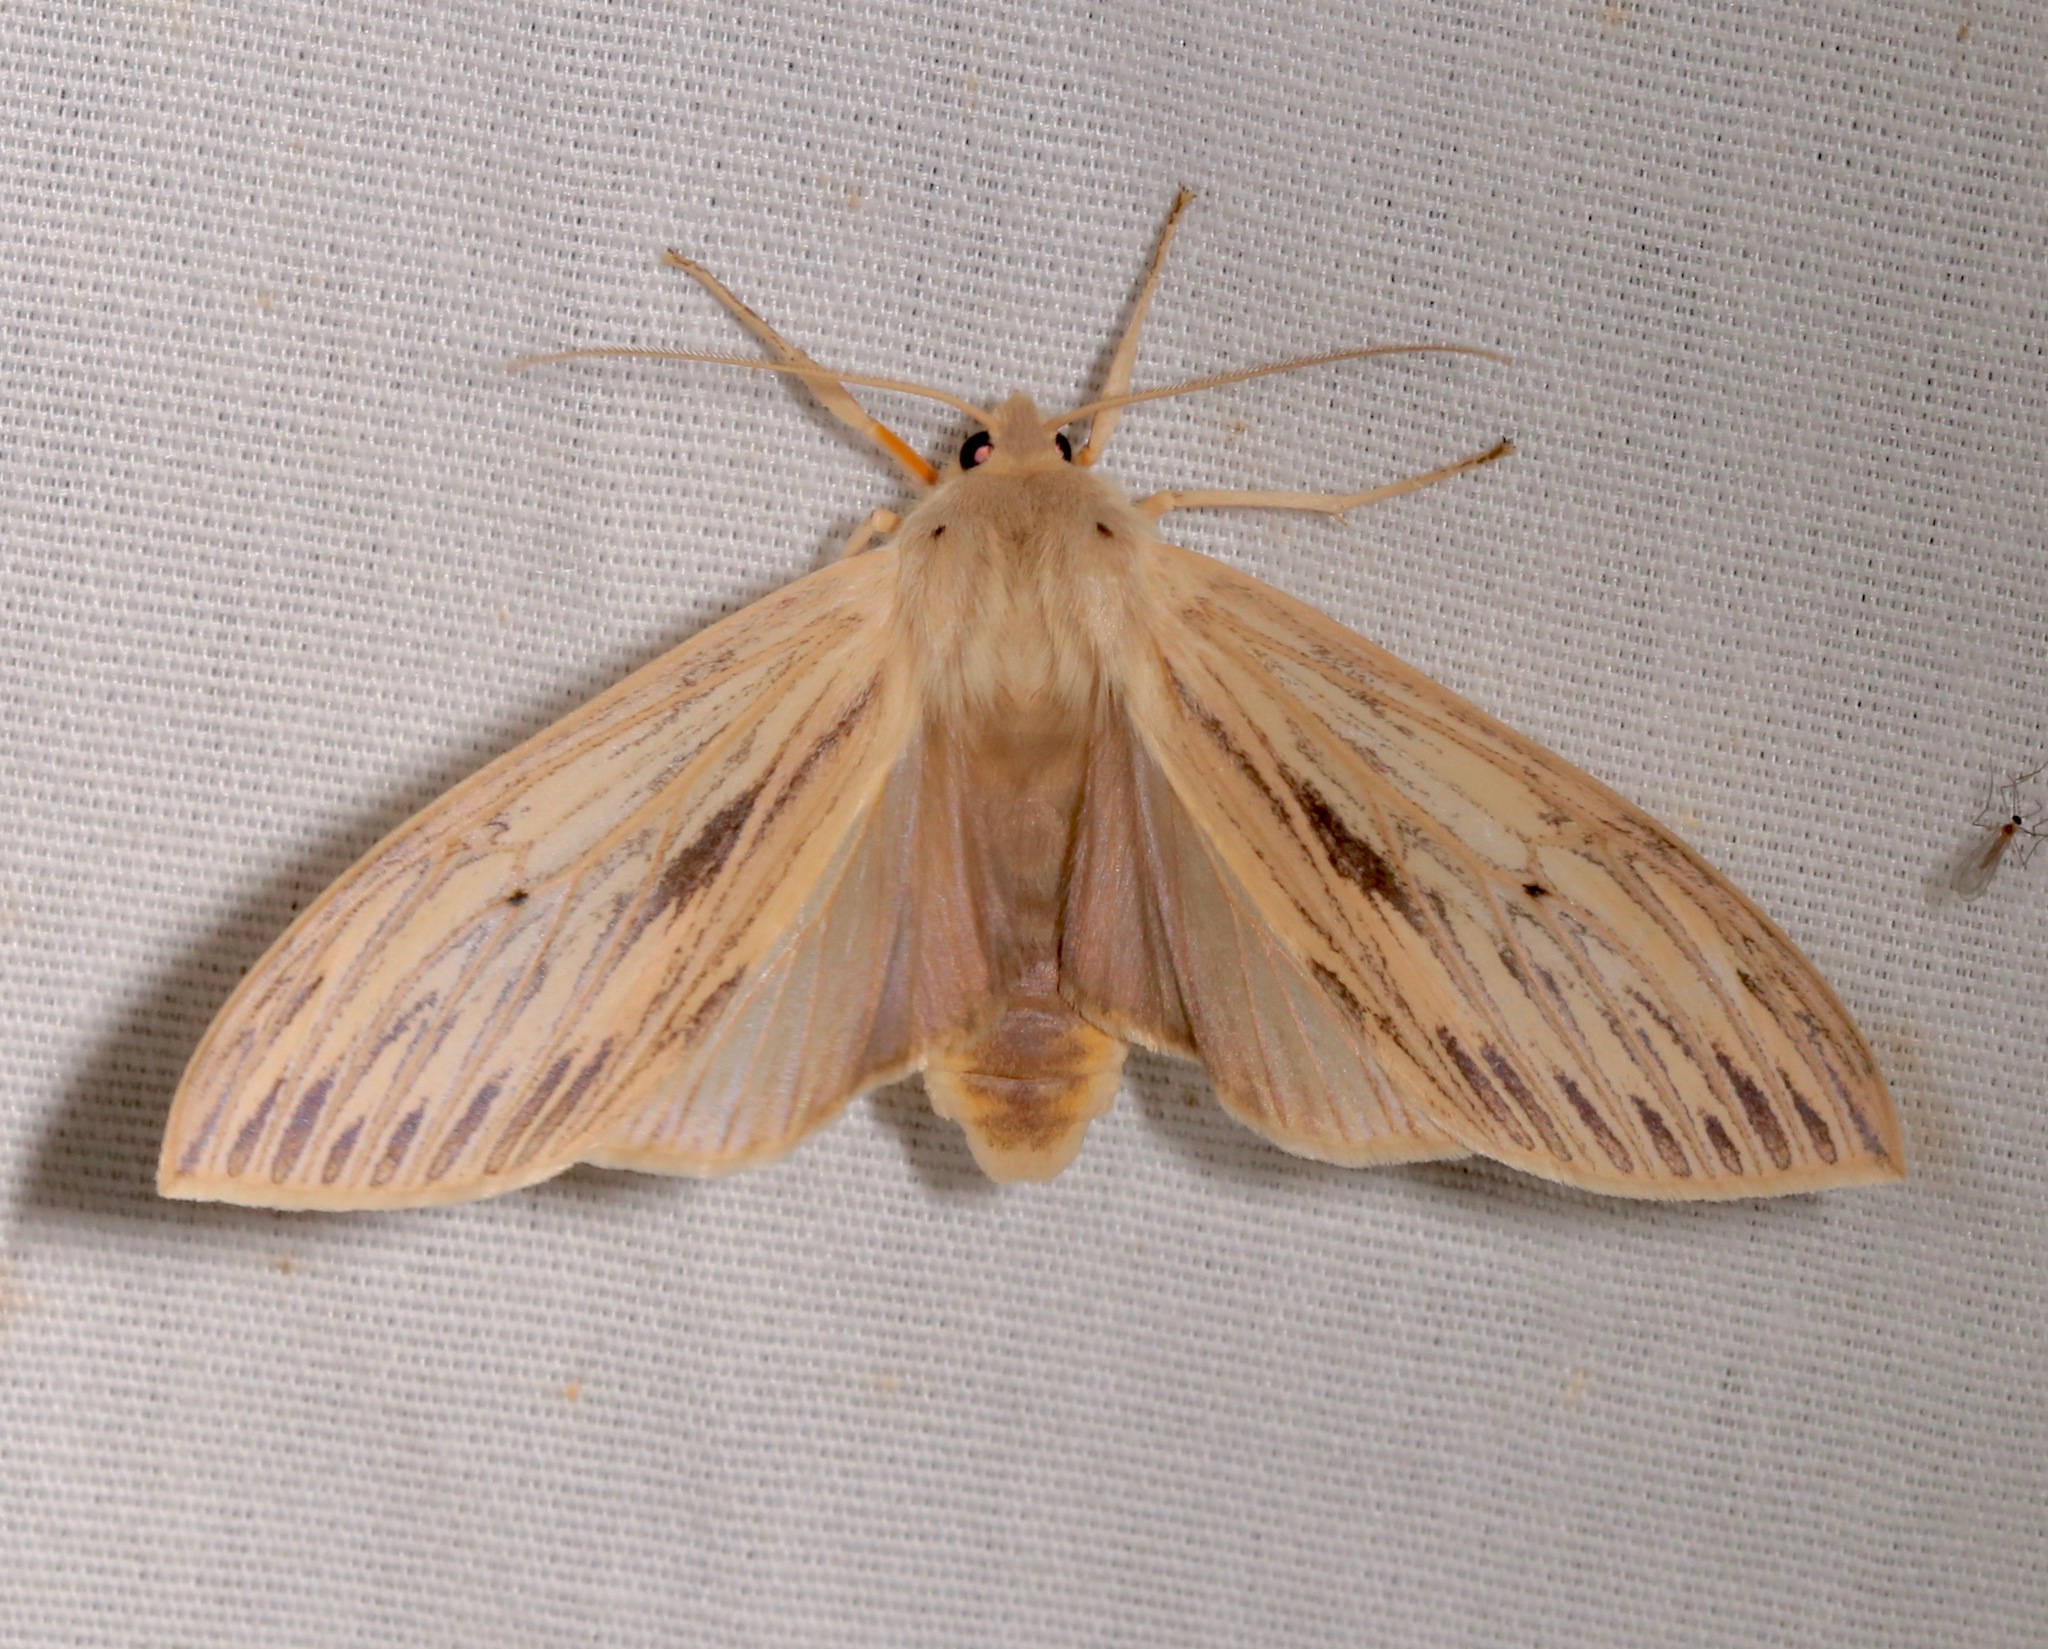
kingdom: Animalia
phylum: Arthropoda
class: Insecta
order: Lepidoptera
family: Erebidae
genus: Leucanopsis
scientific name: Leucanopsis lurida
